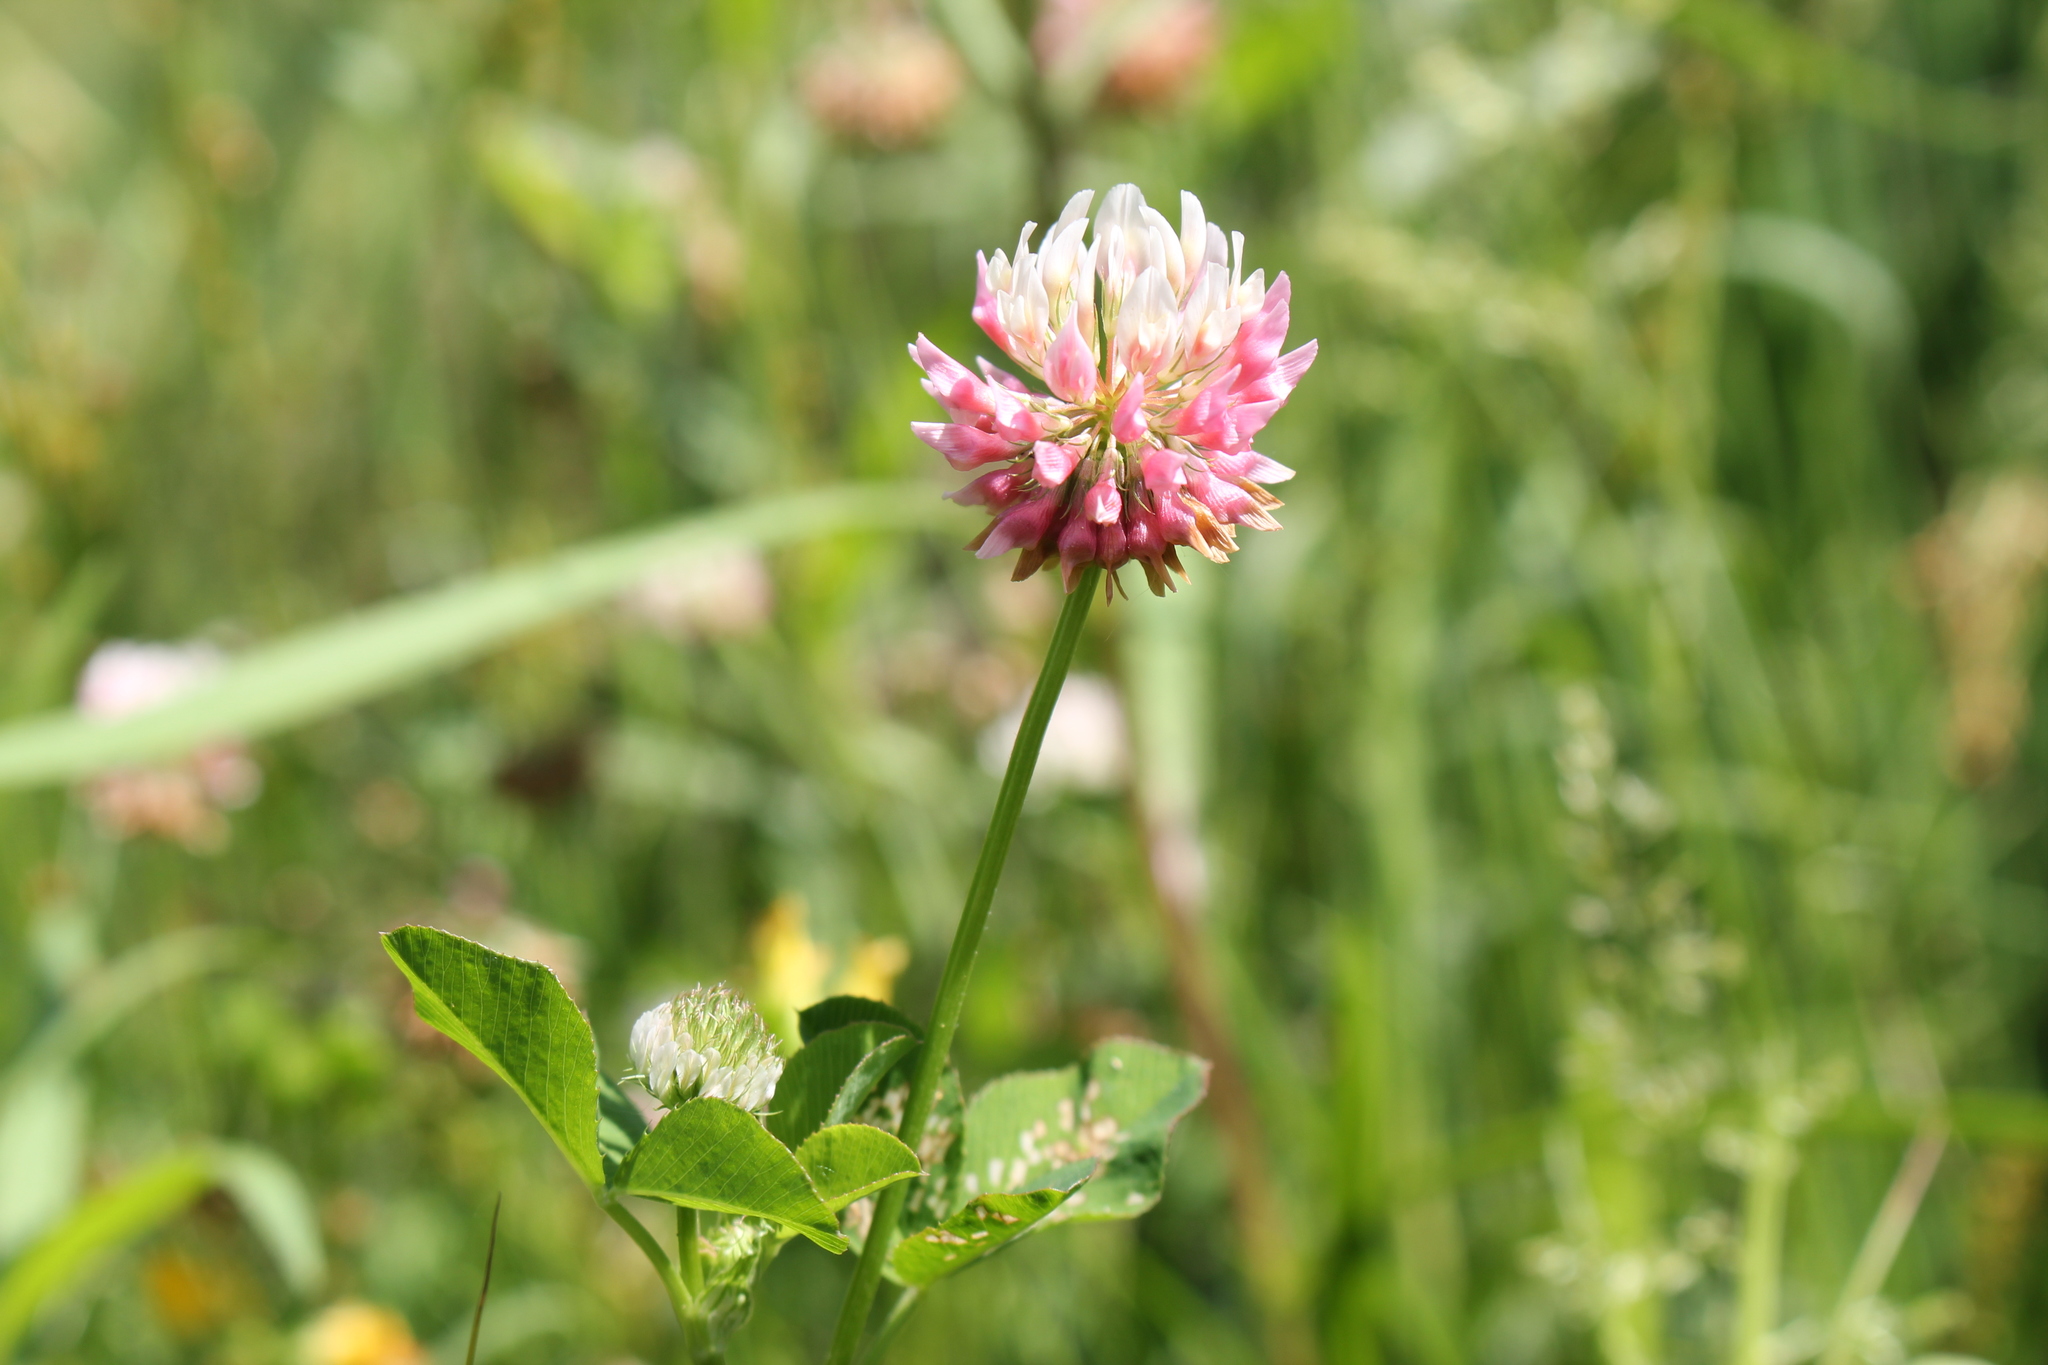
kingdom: Plantae
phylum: Tracheophyta
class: Magnoliopsida
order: Fabales
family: Fabaceae
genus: Trifolium
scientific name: Trifolium hybridum
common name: Alsike clover
